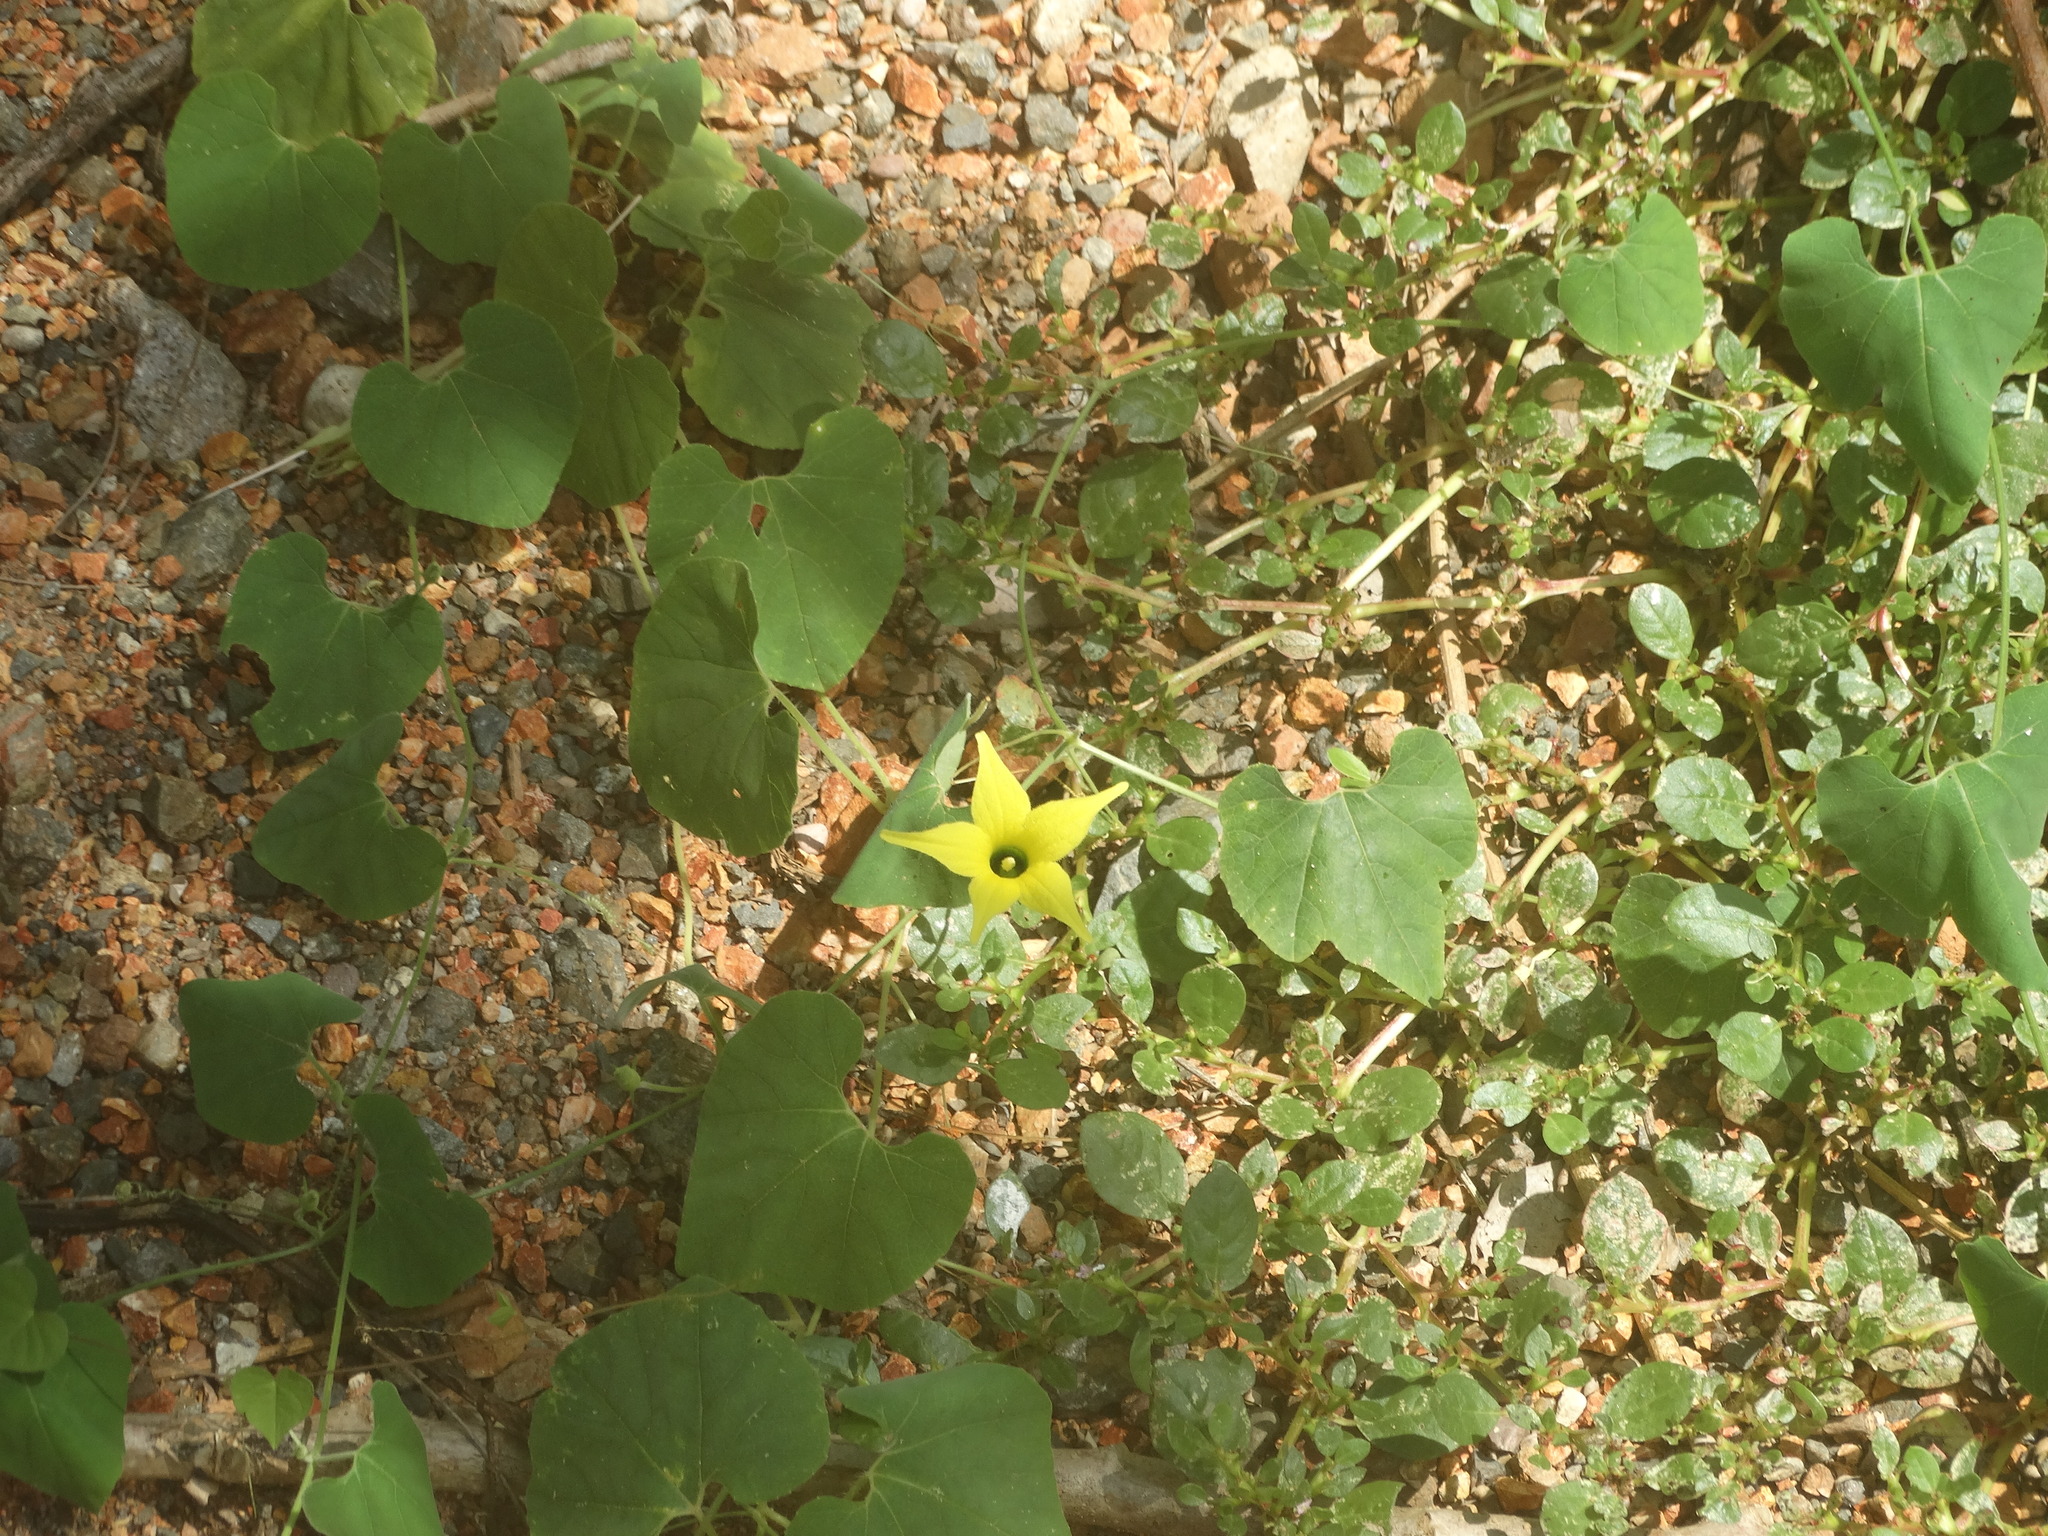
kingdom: Plantae
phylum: Tracheophyta
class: Magnoliopsida
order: Cucurbitales
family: Cucurbitaceae
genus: Schizocarpum
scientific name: Schizocarpum palmeri
